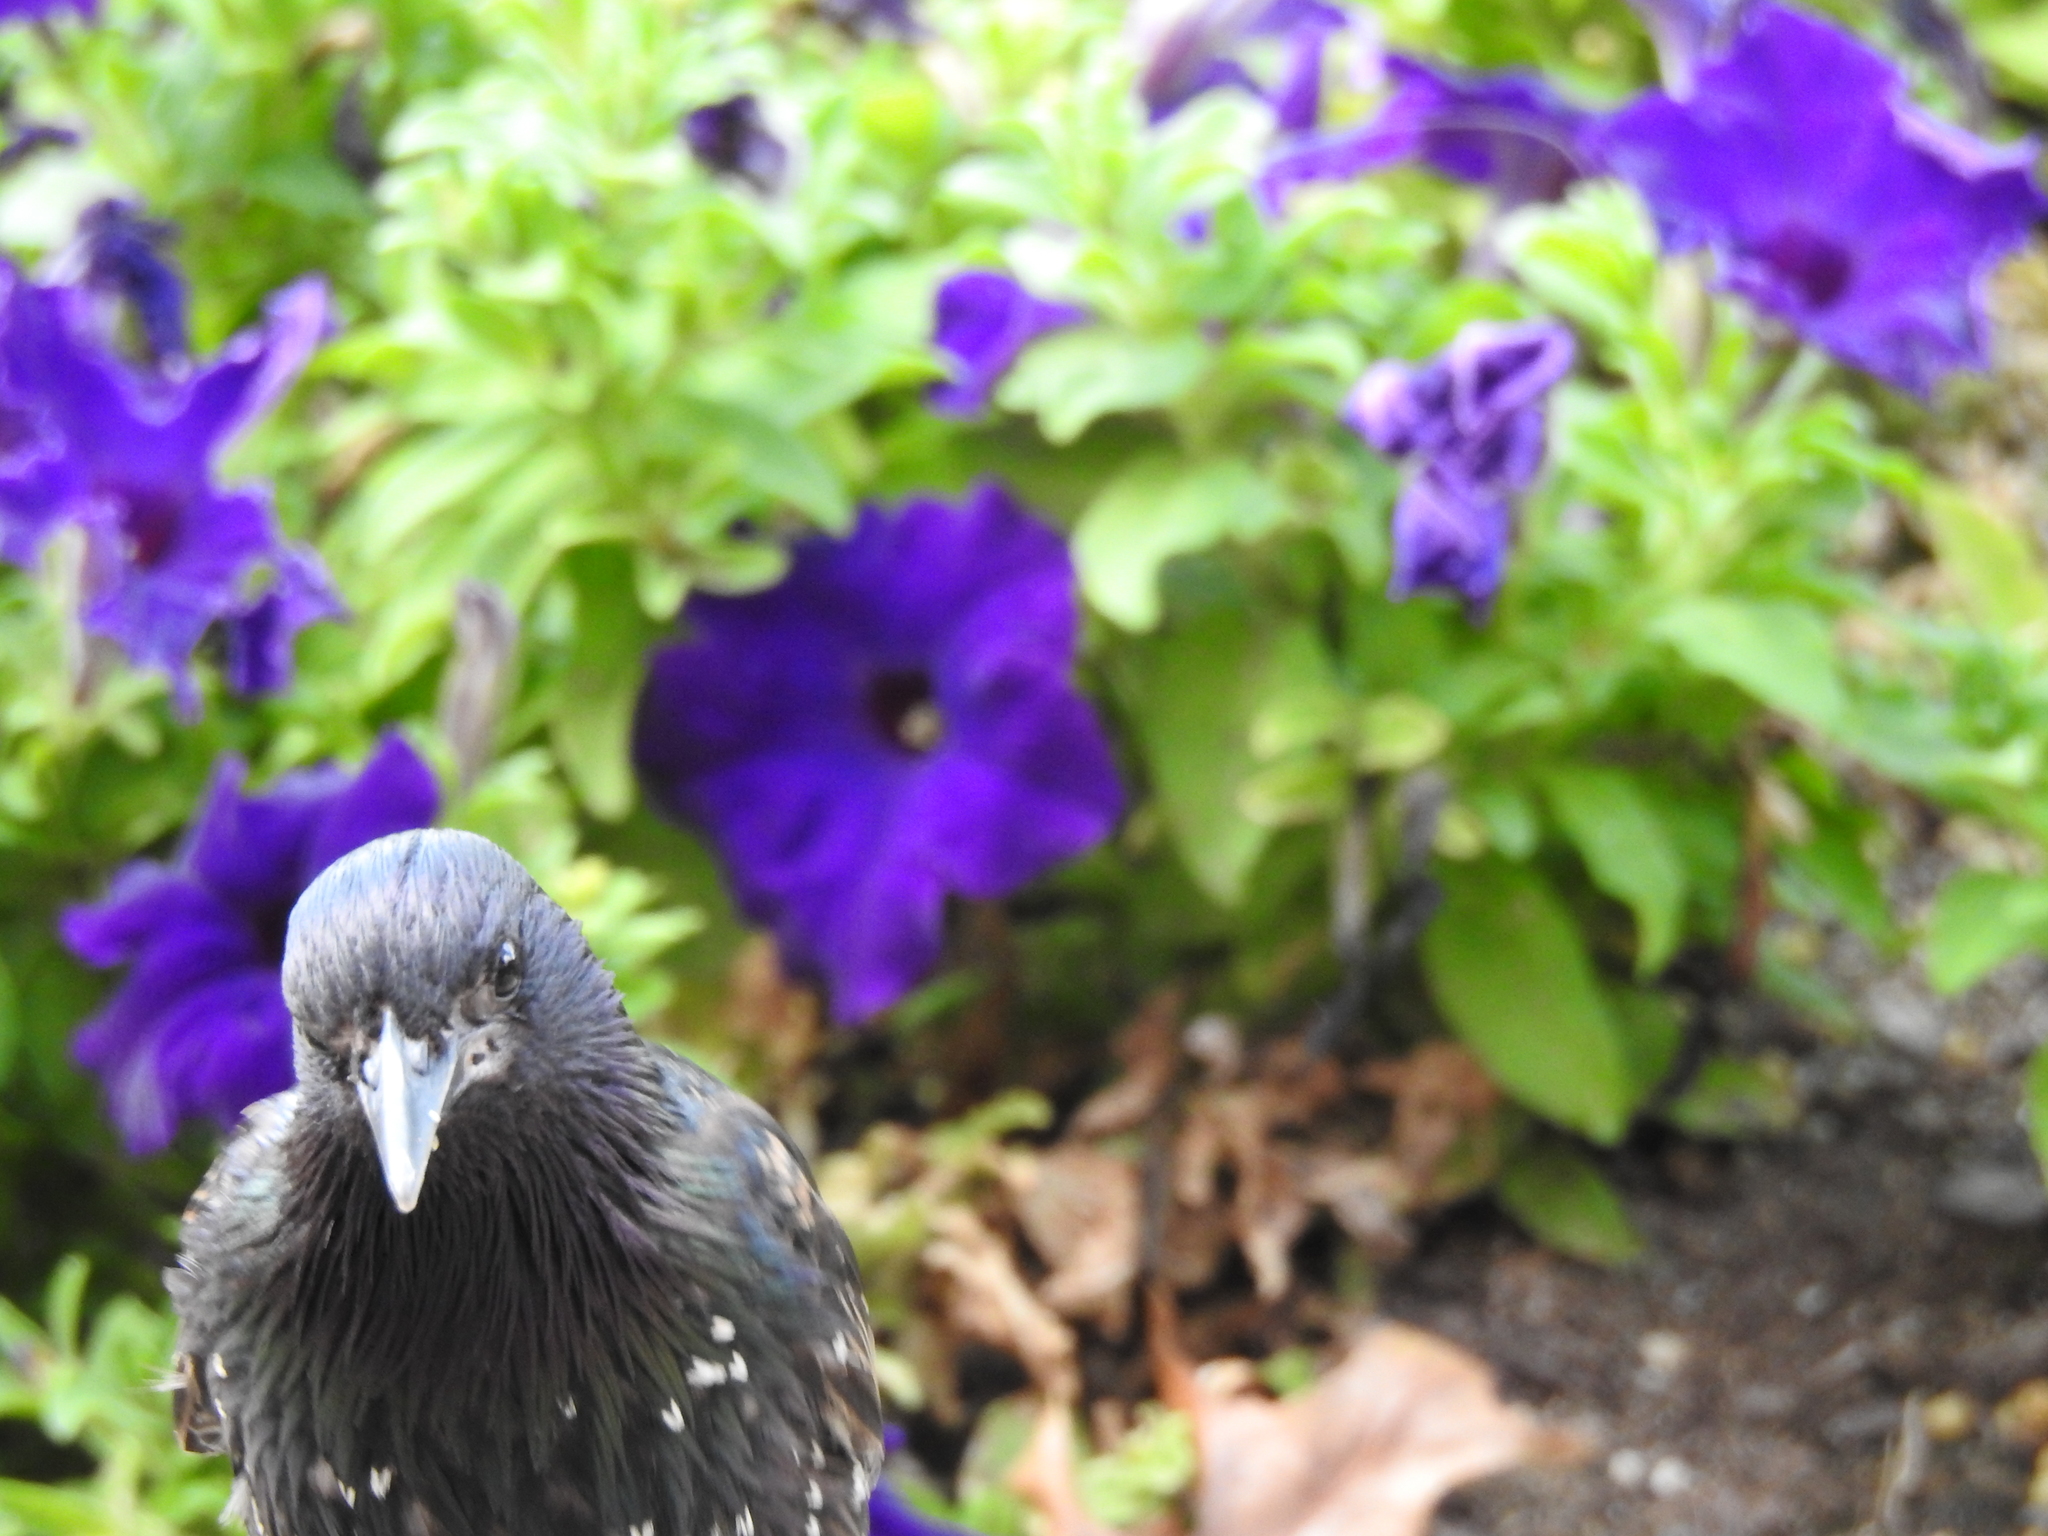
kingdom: Animalia
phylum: Chordata
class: Aves
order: Passeriformes
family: Sturnidae
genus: Sturnus
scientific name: Sturnus vulgaris
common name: Common starling
